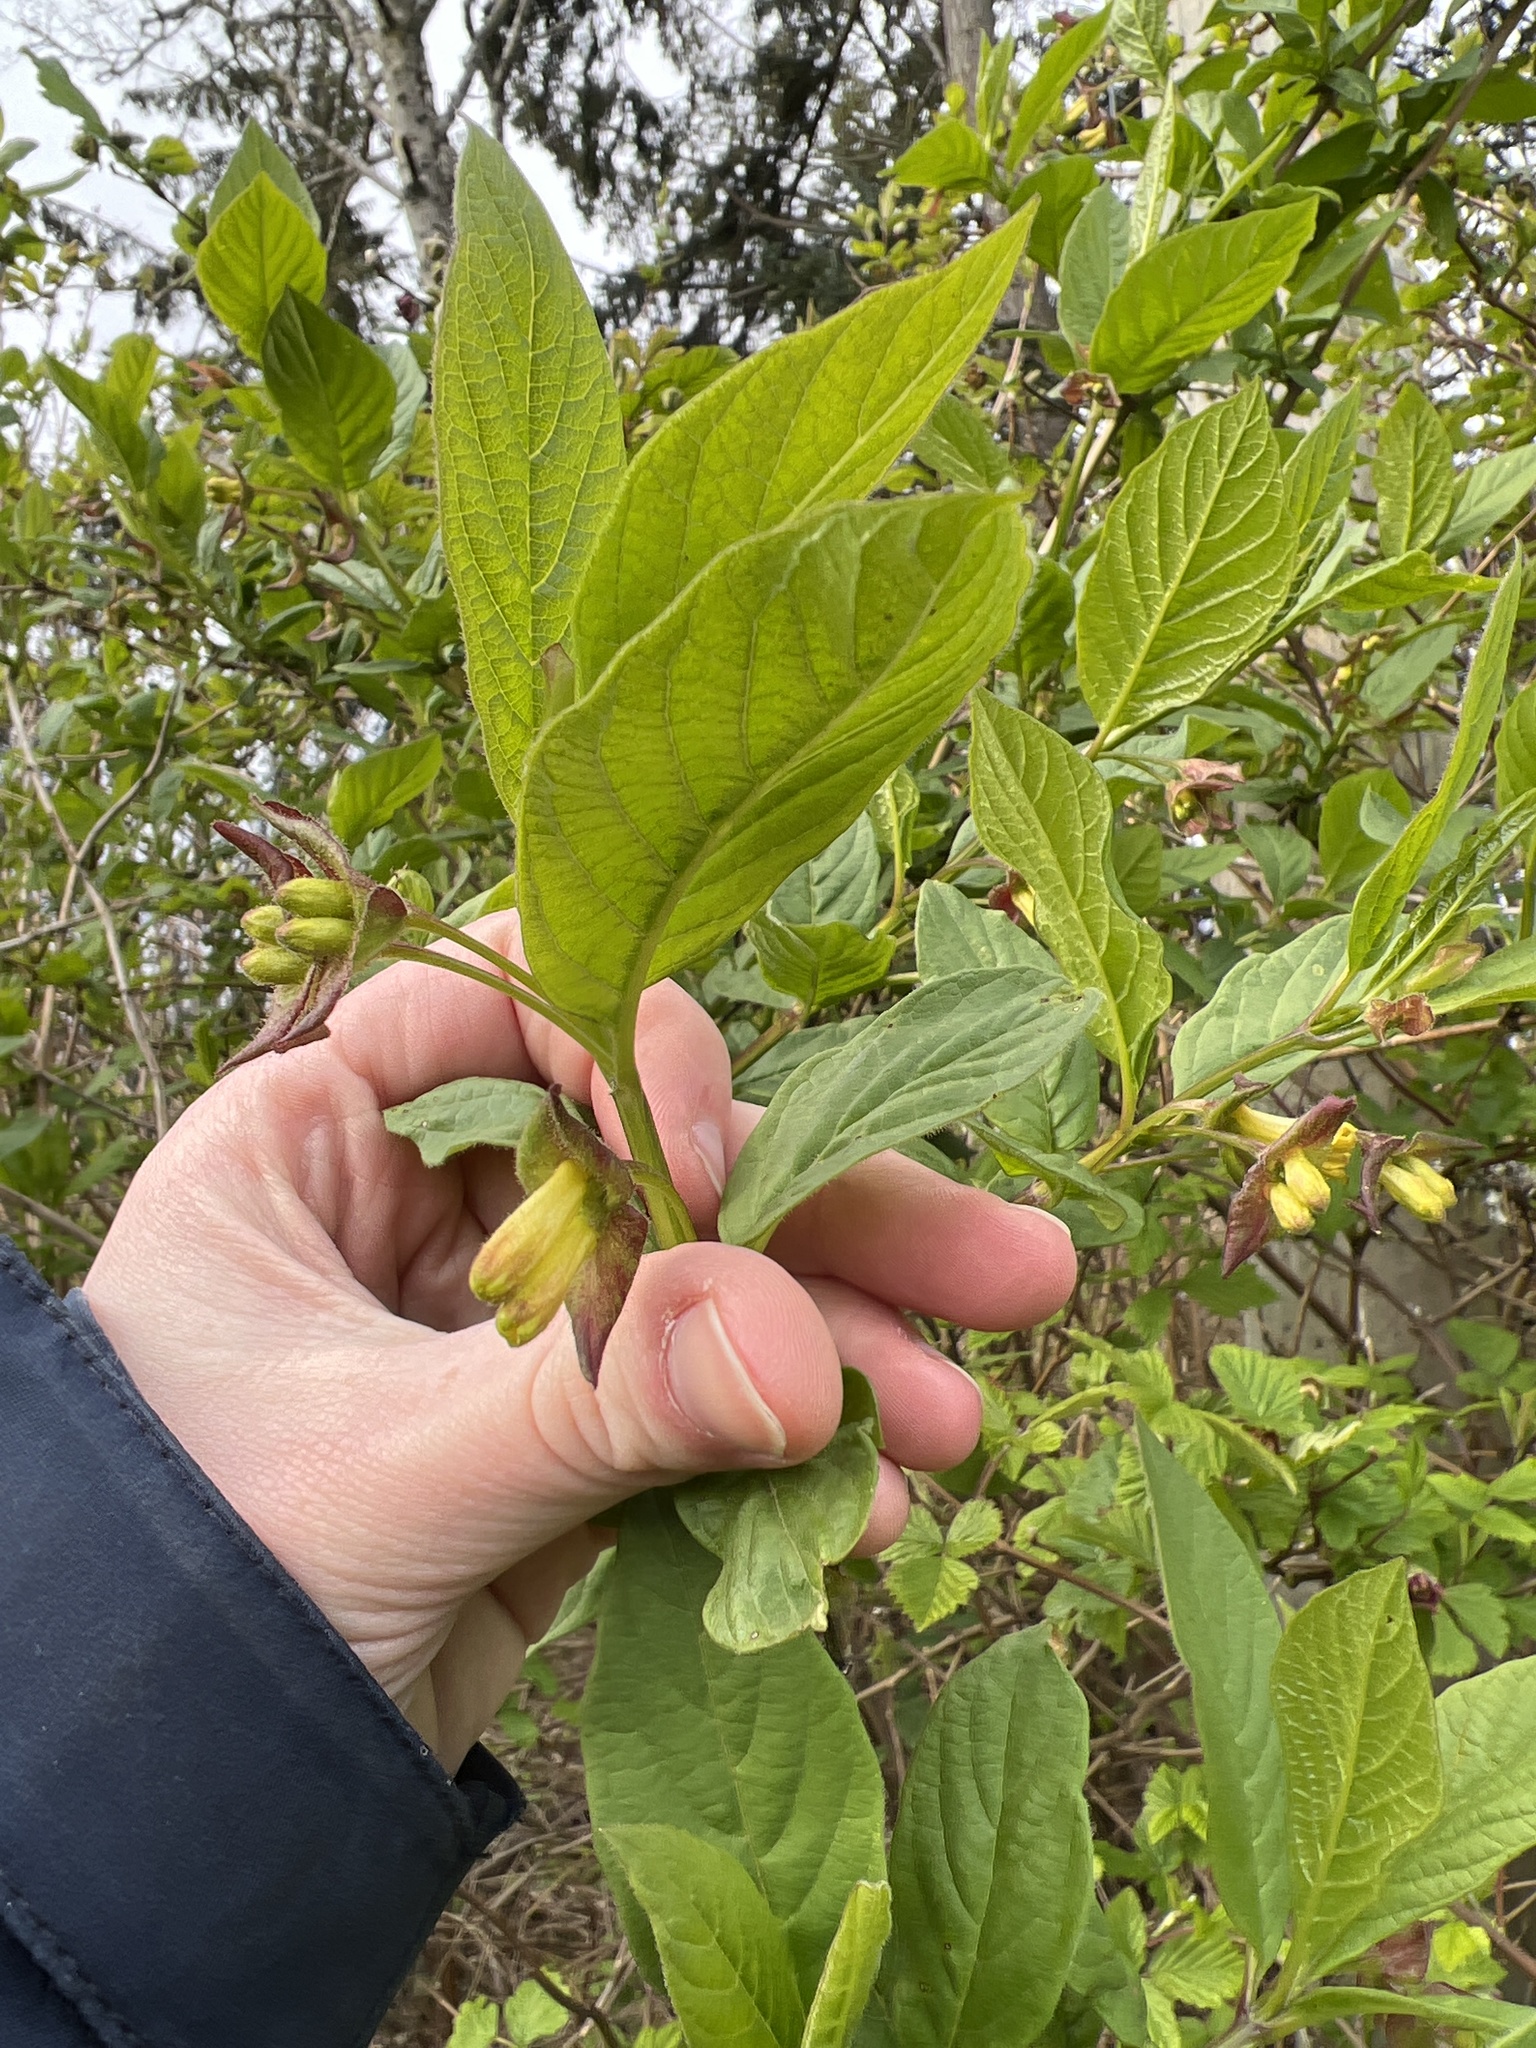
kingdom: Plantae
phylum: Tracheophyta
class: Magnoliopsida
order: Dipsacales
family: Caprifoliaceae
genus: Lonicera
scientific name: Lonicera involucrata
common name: Californian honeysuckle
